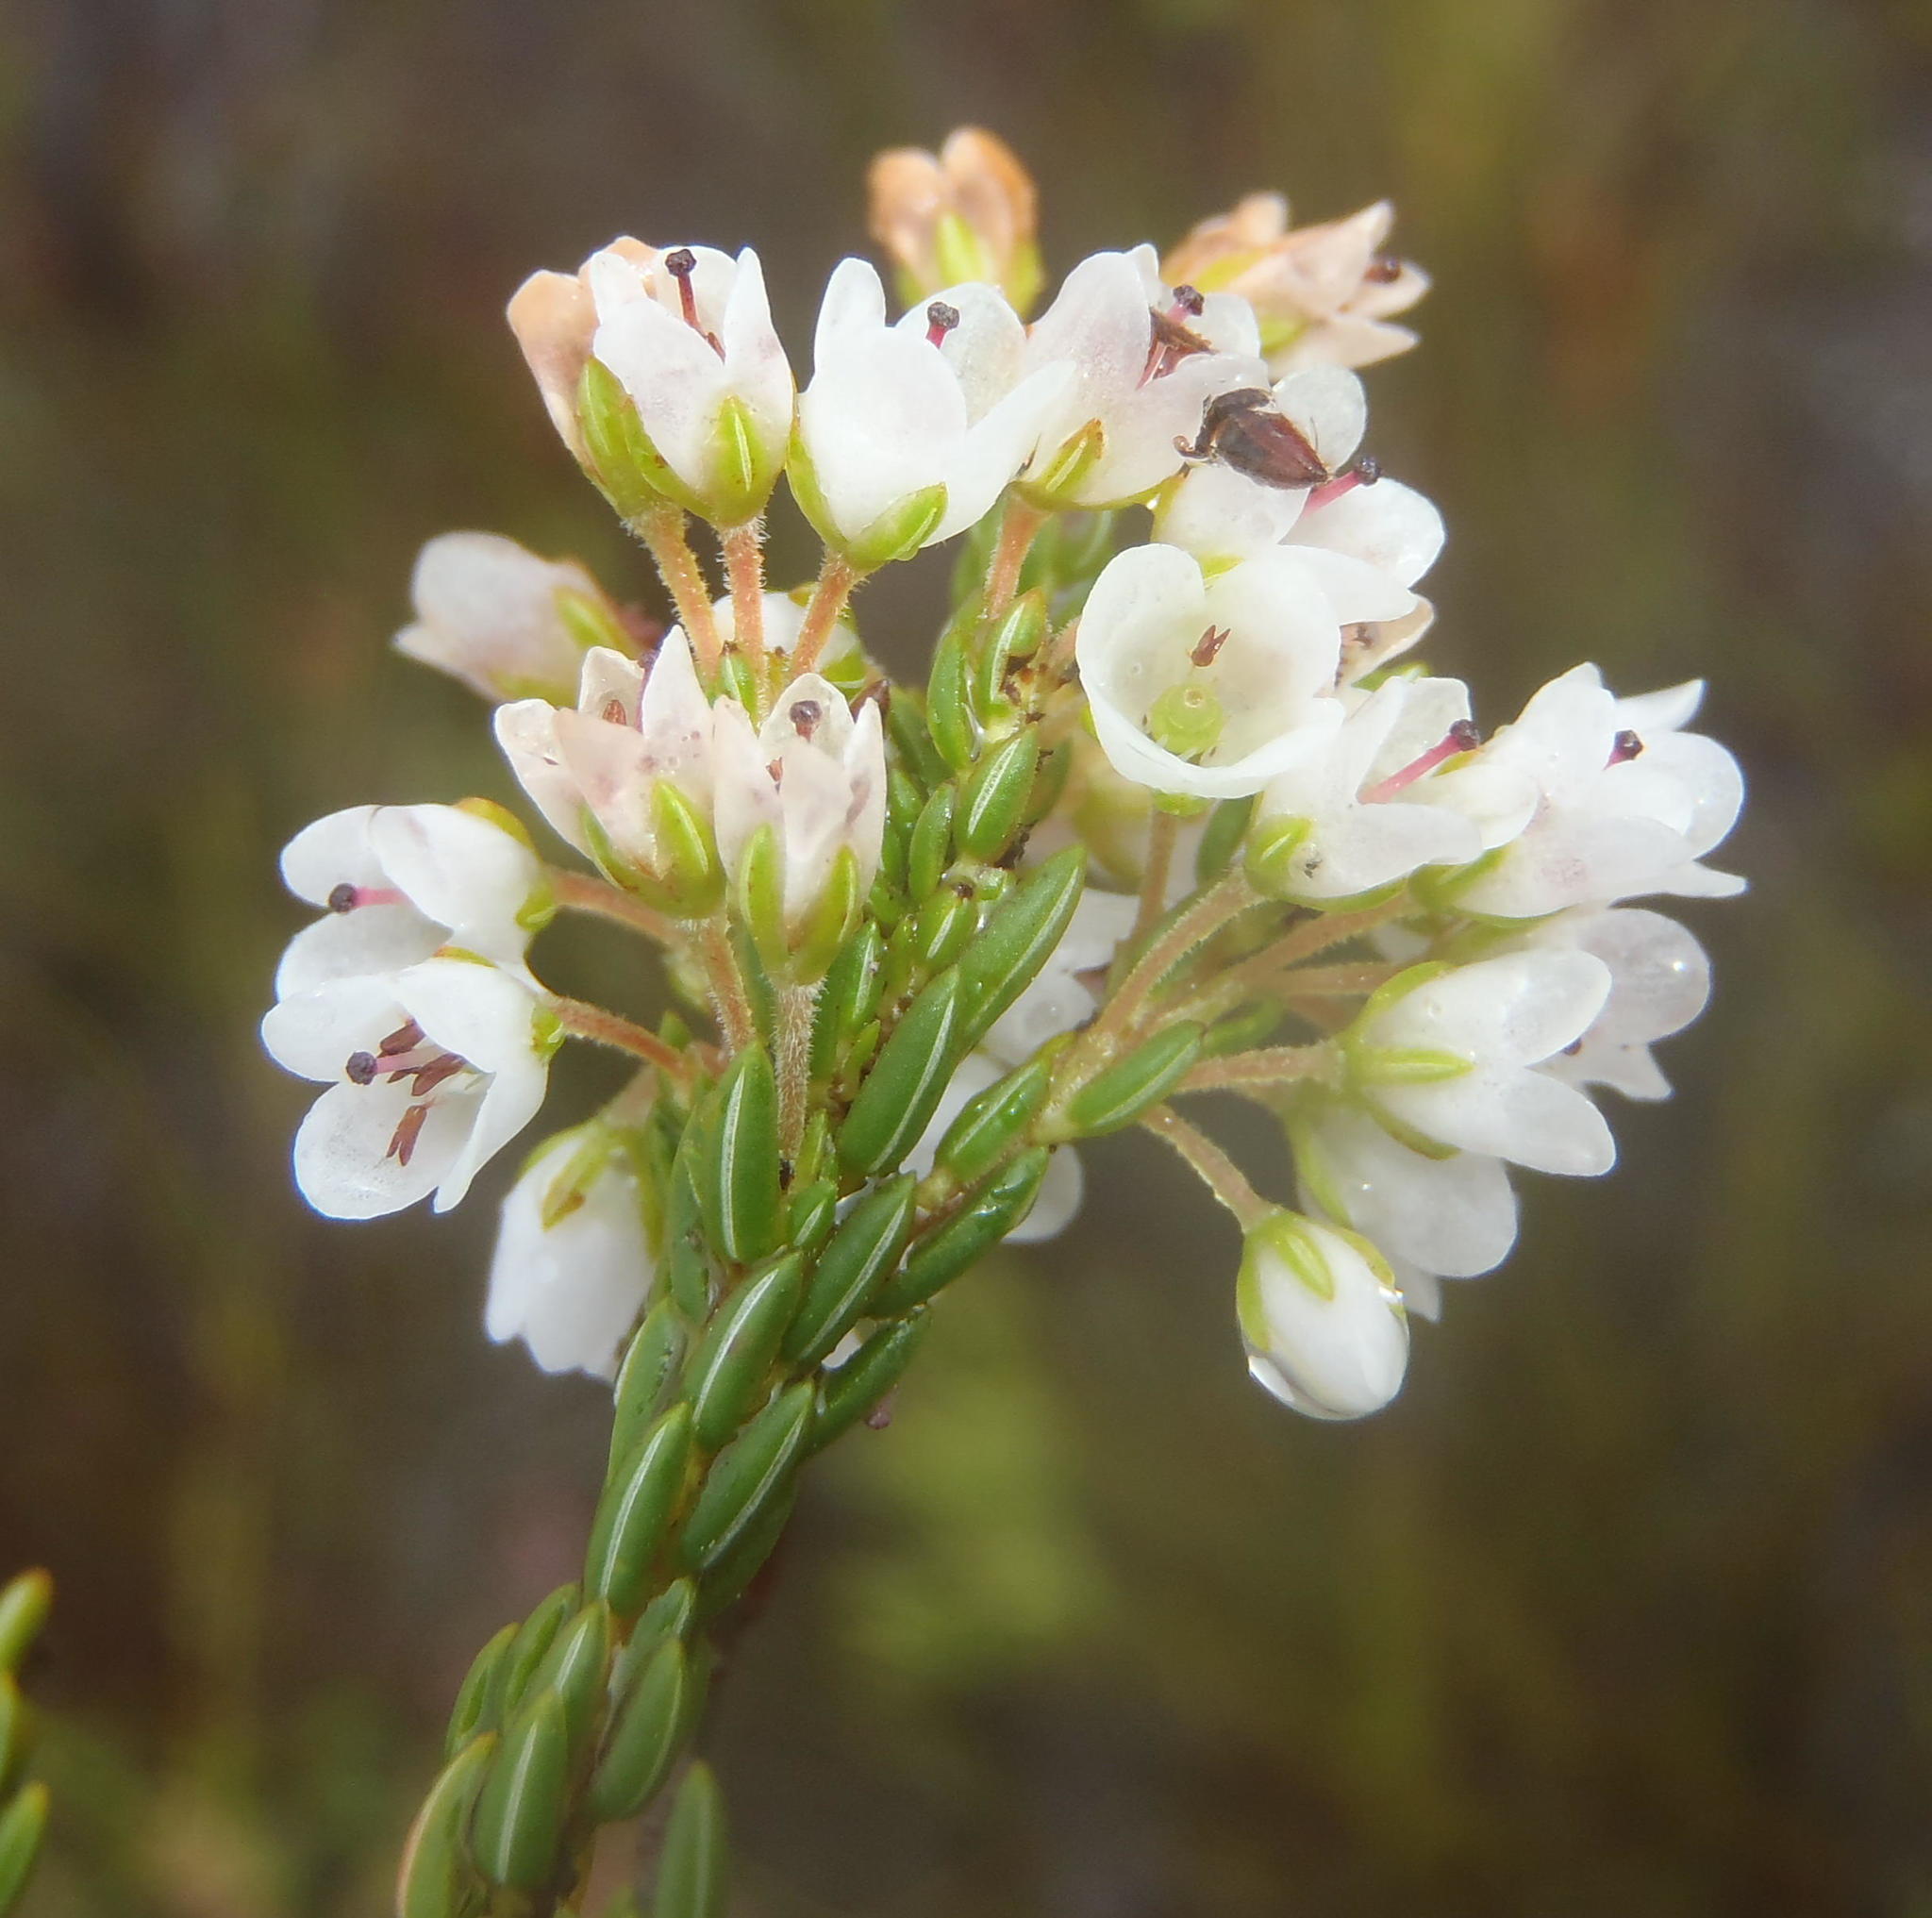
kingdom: Plantae
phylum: Tracheophyta
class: Magnoliopsida
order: Ericales
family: Ericaceae
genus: Erica
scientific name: Erica longiaristata
